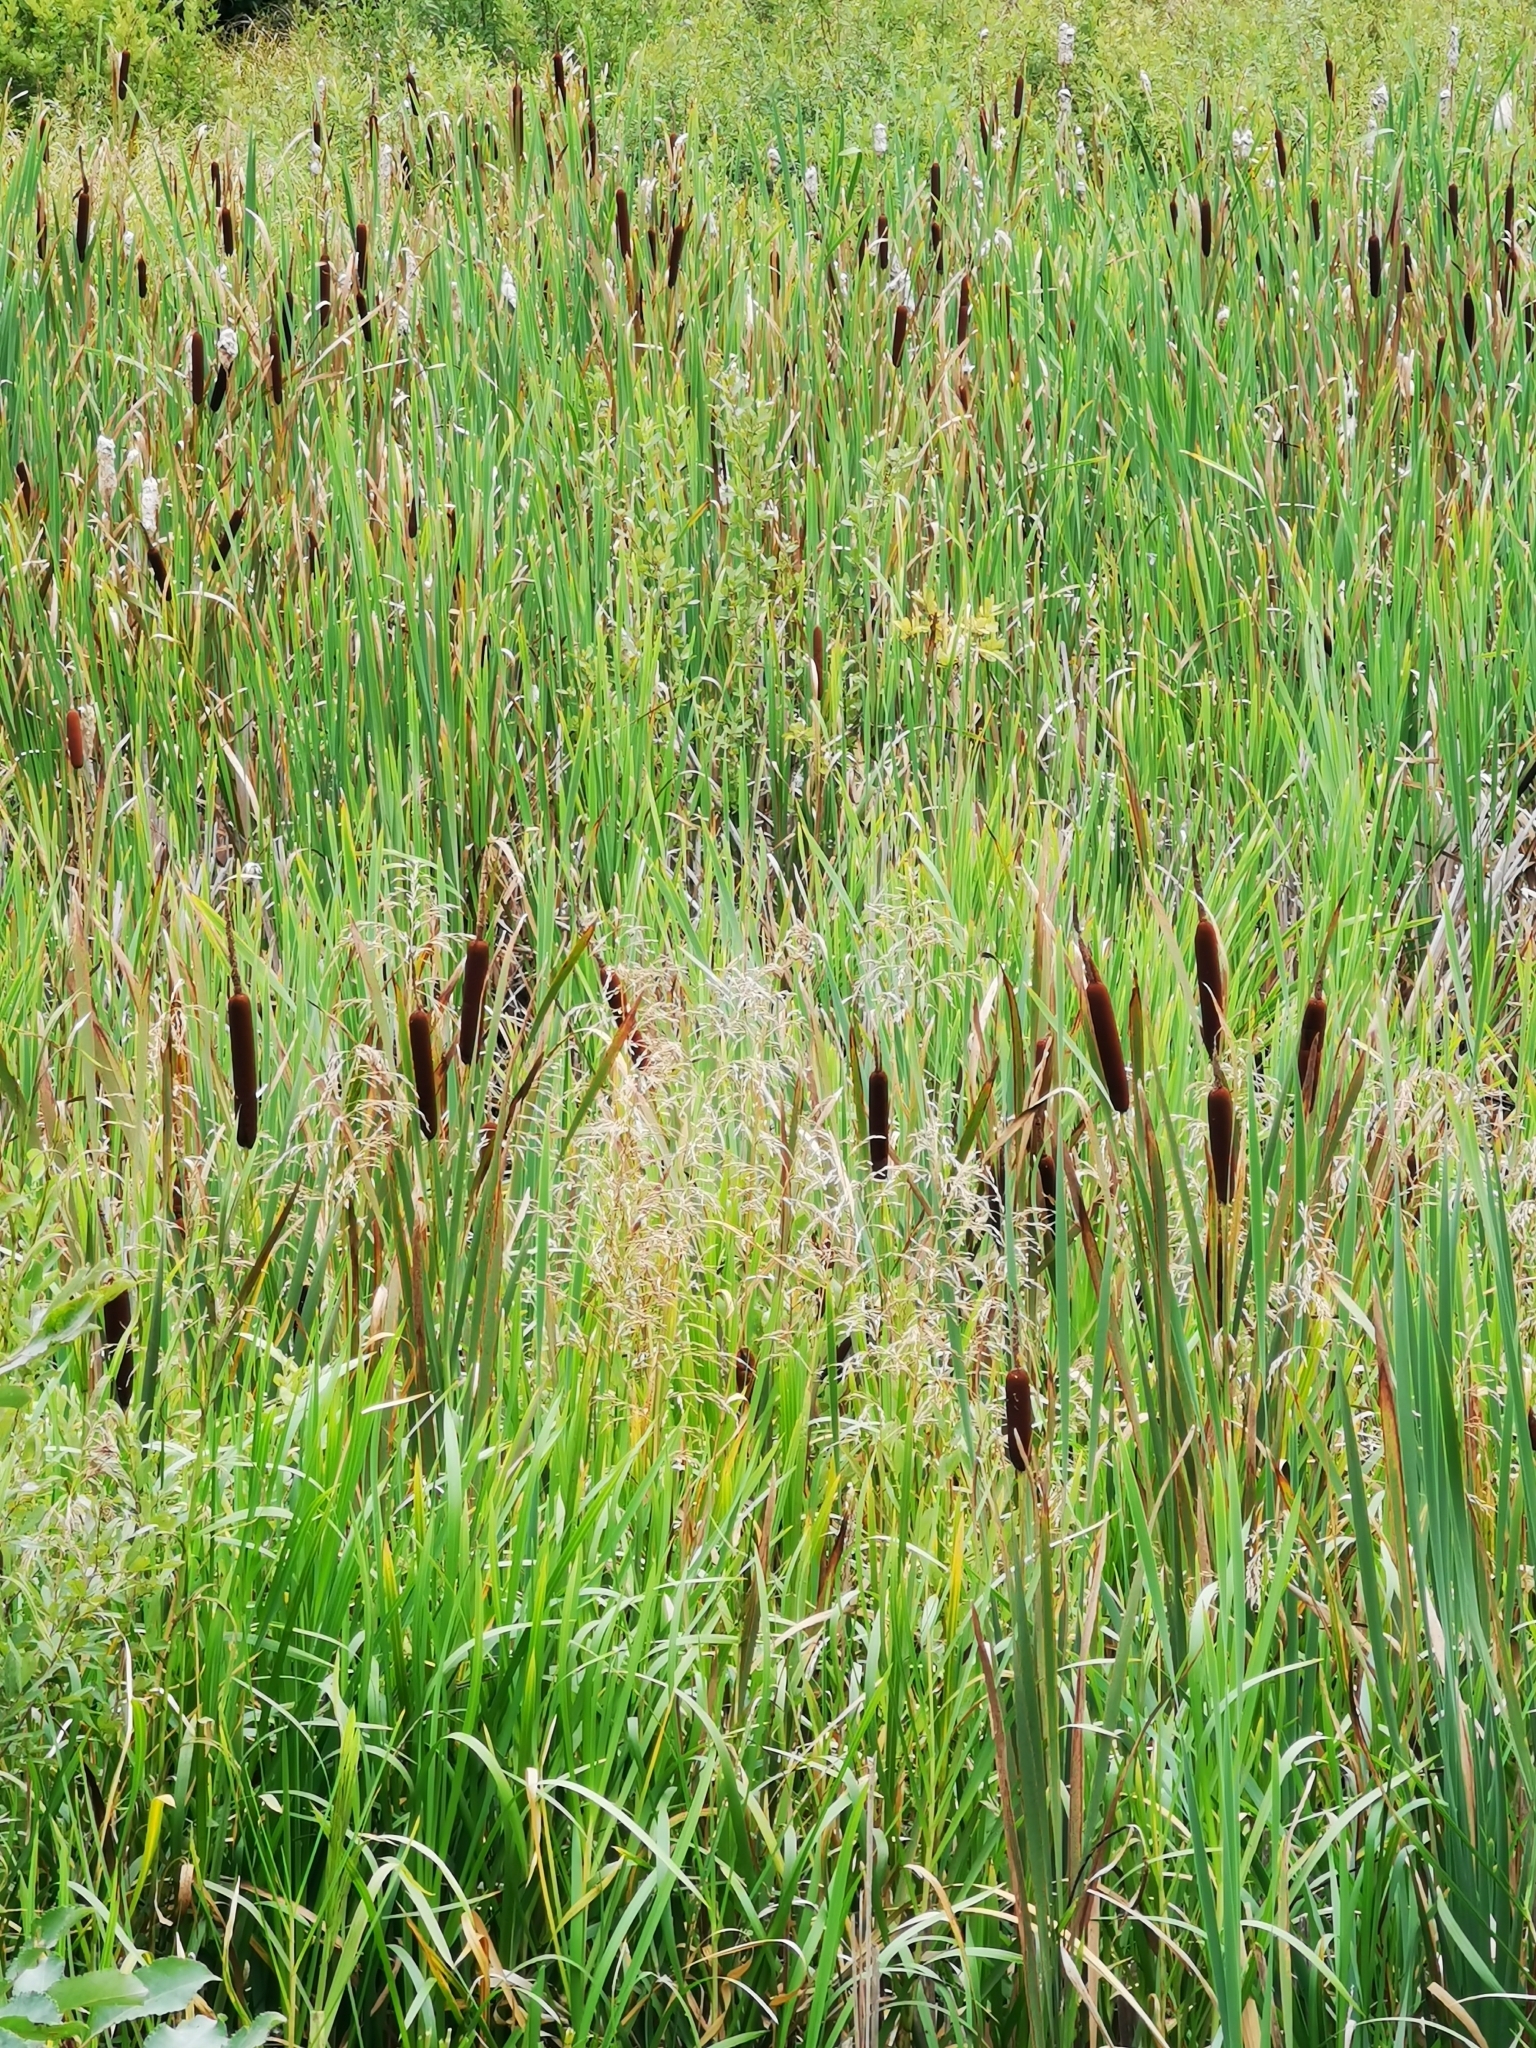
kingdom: Plantae
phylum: Tracheophyta
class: Liliopsida
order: Poales
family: Typhaceae
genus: Typha
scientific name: Typha latifolia
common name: Broadleaf cattail
